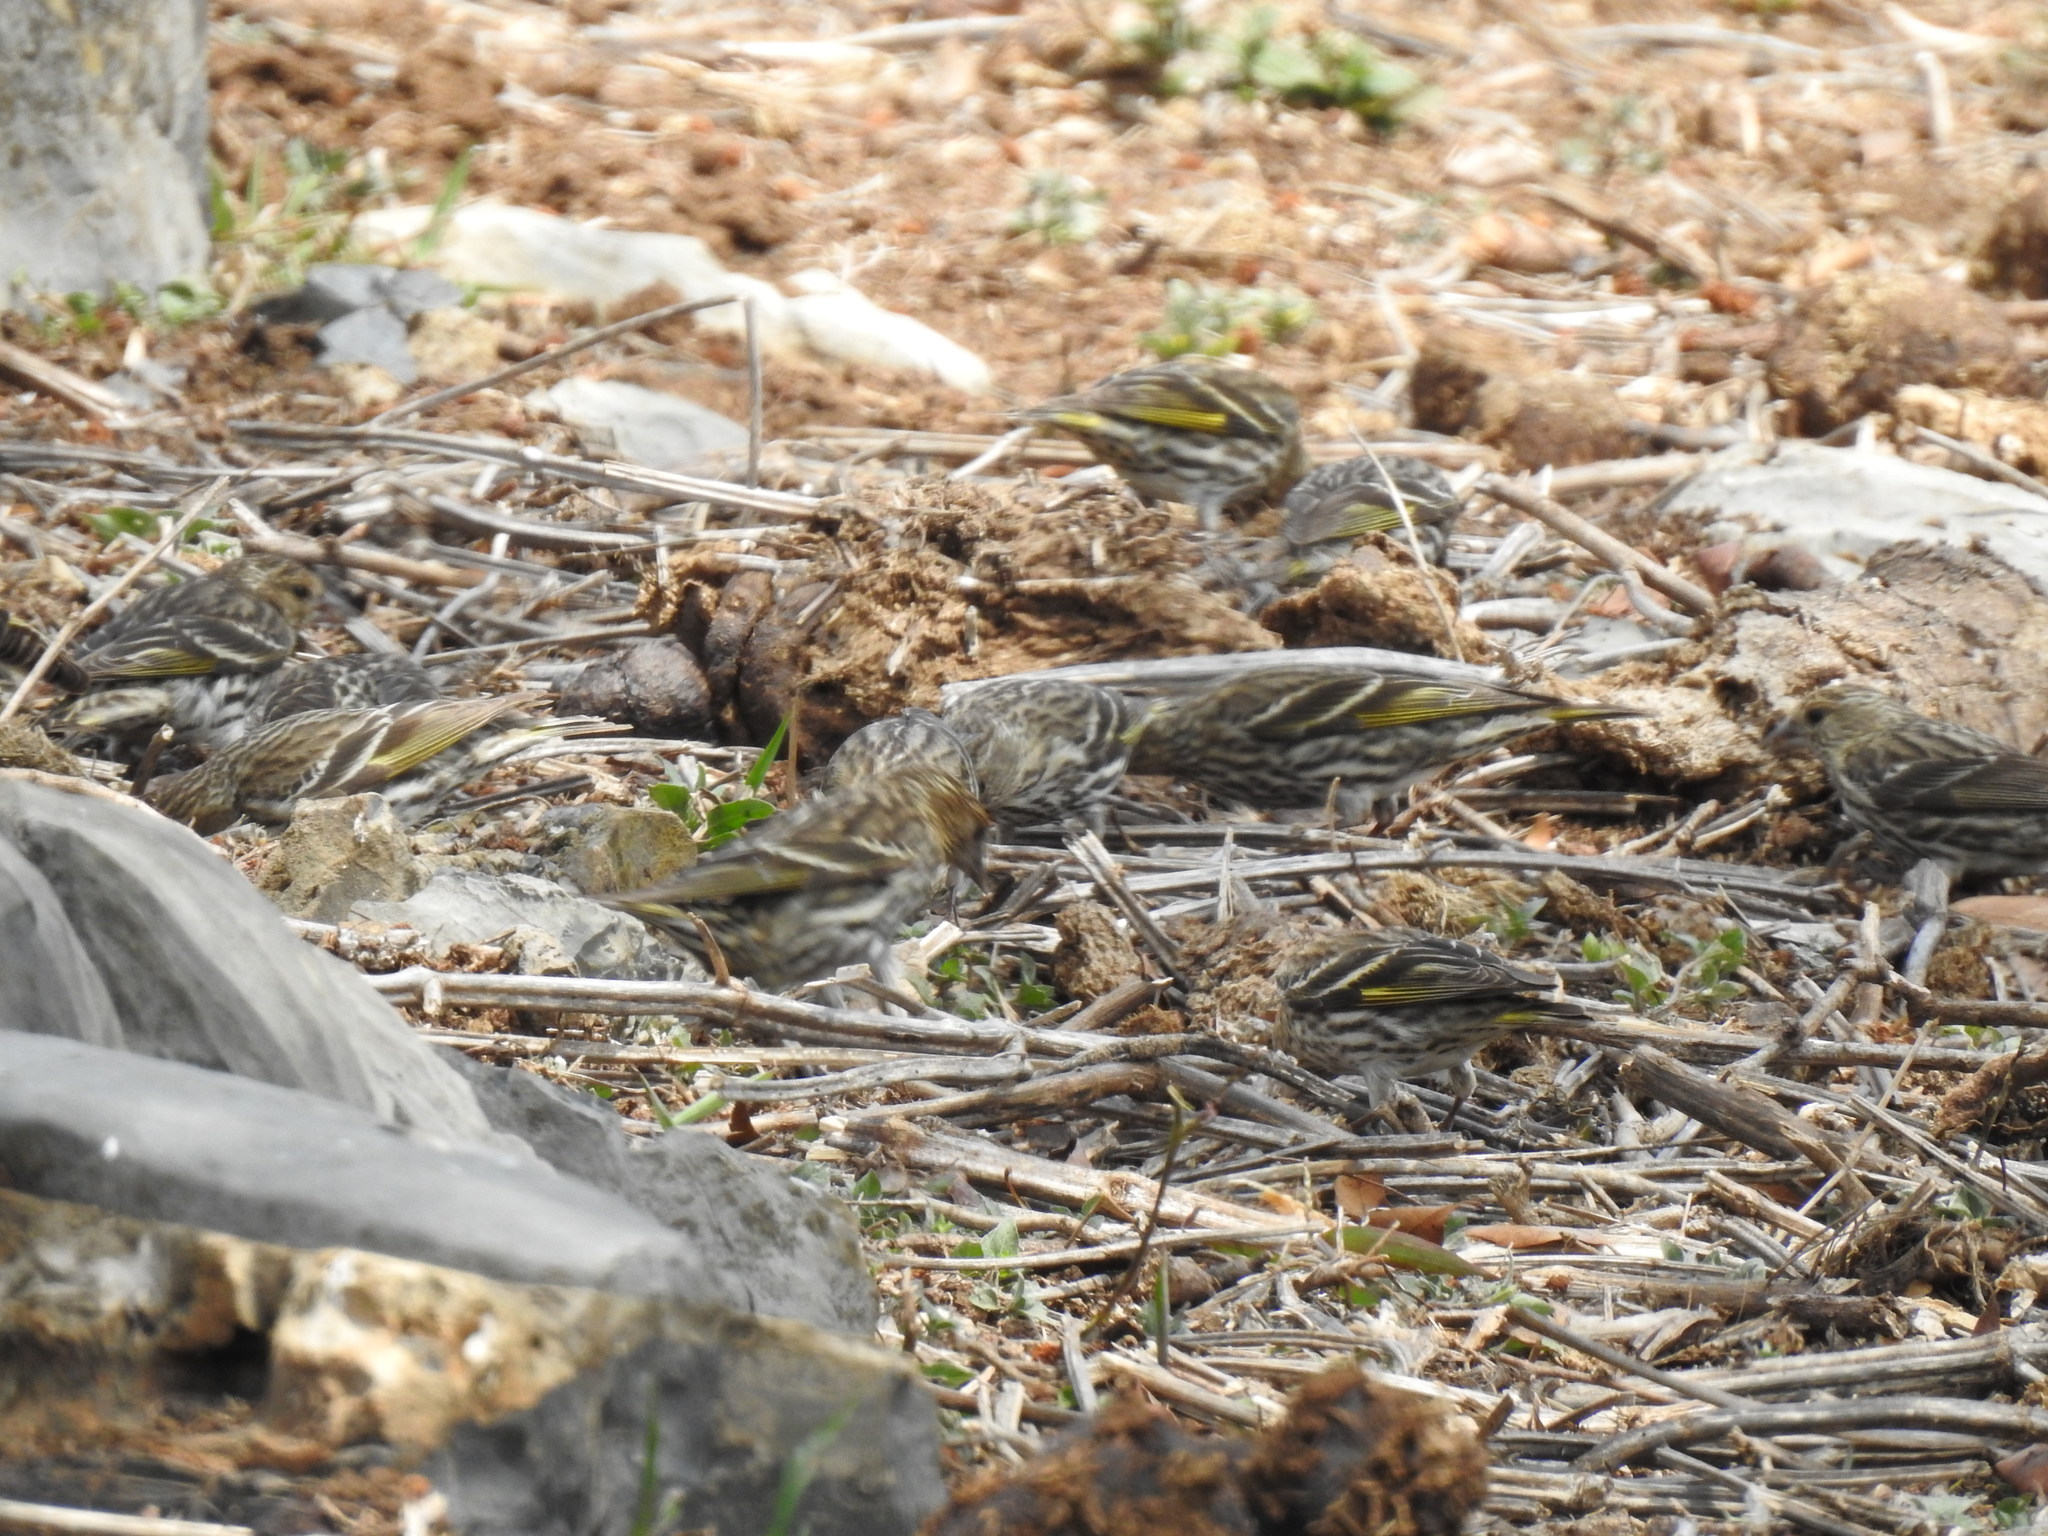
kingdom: Animalia
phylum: Chordata
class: Aves
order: Passeriformes
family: Fringillidae
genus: Spinus
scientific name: Spinus pinus
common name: Pine siskin
